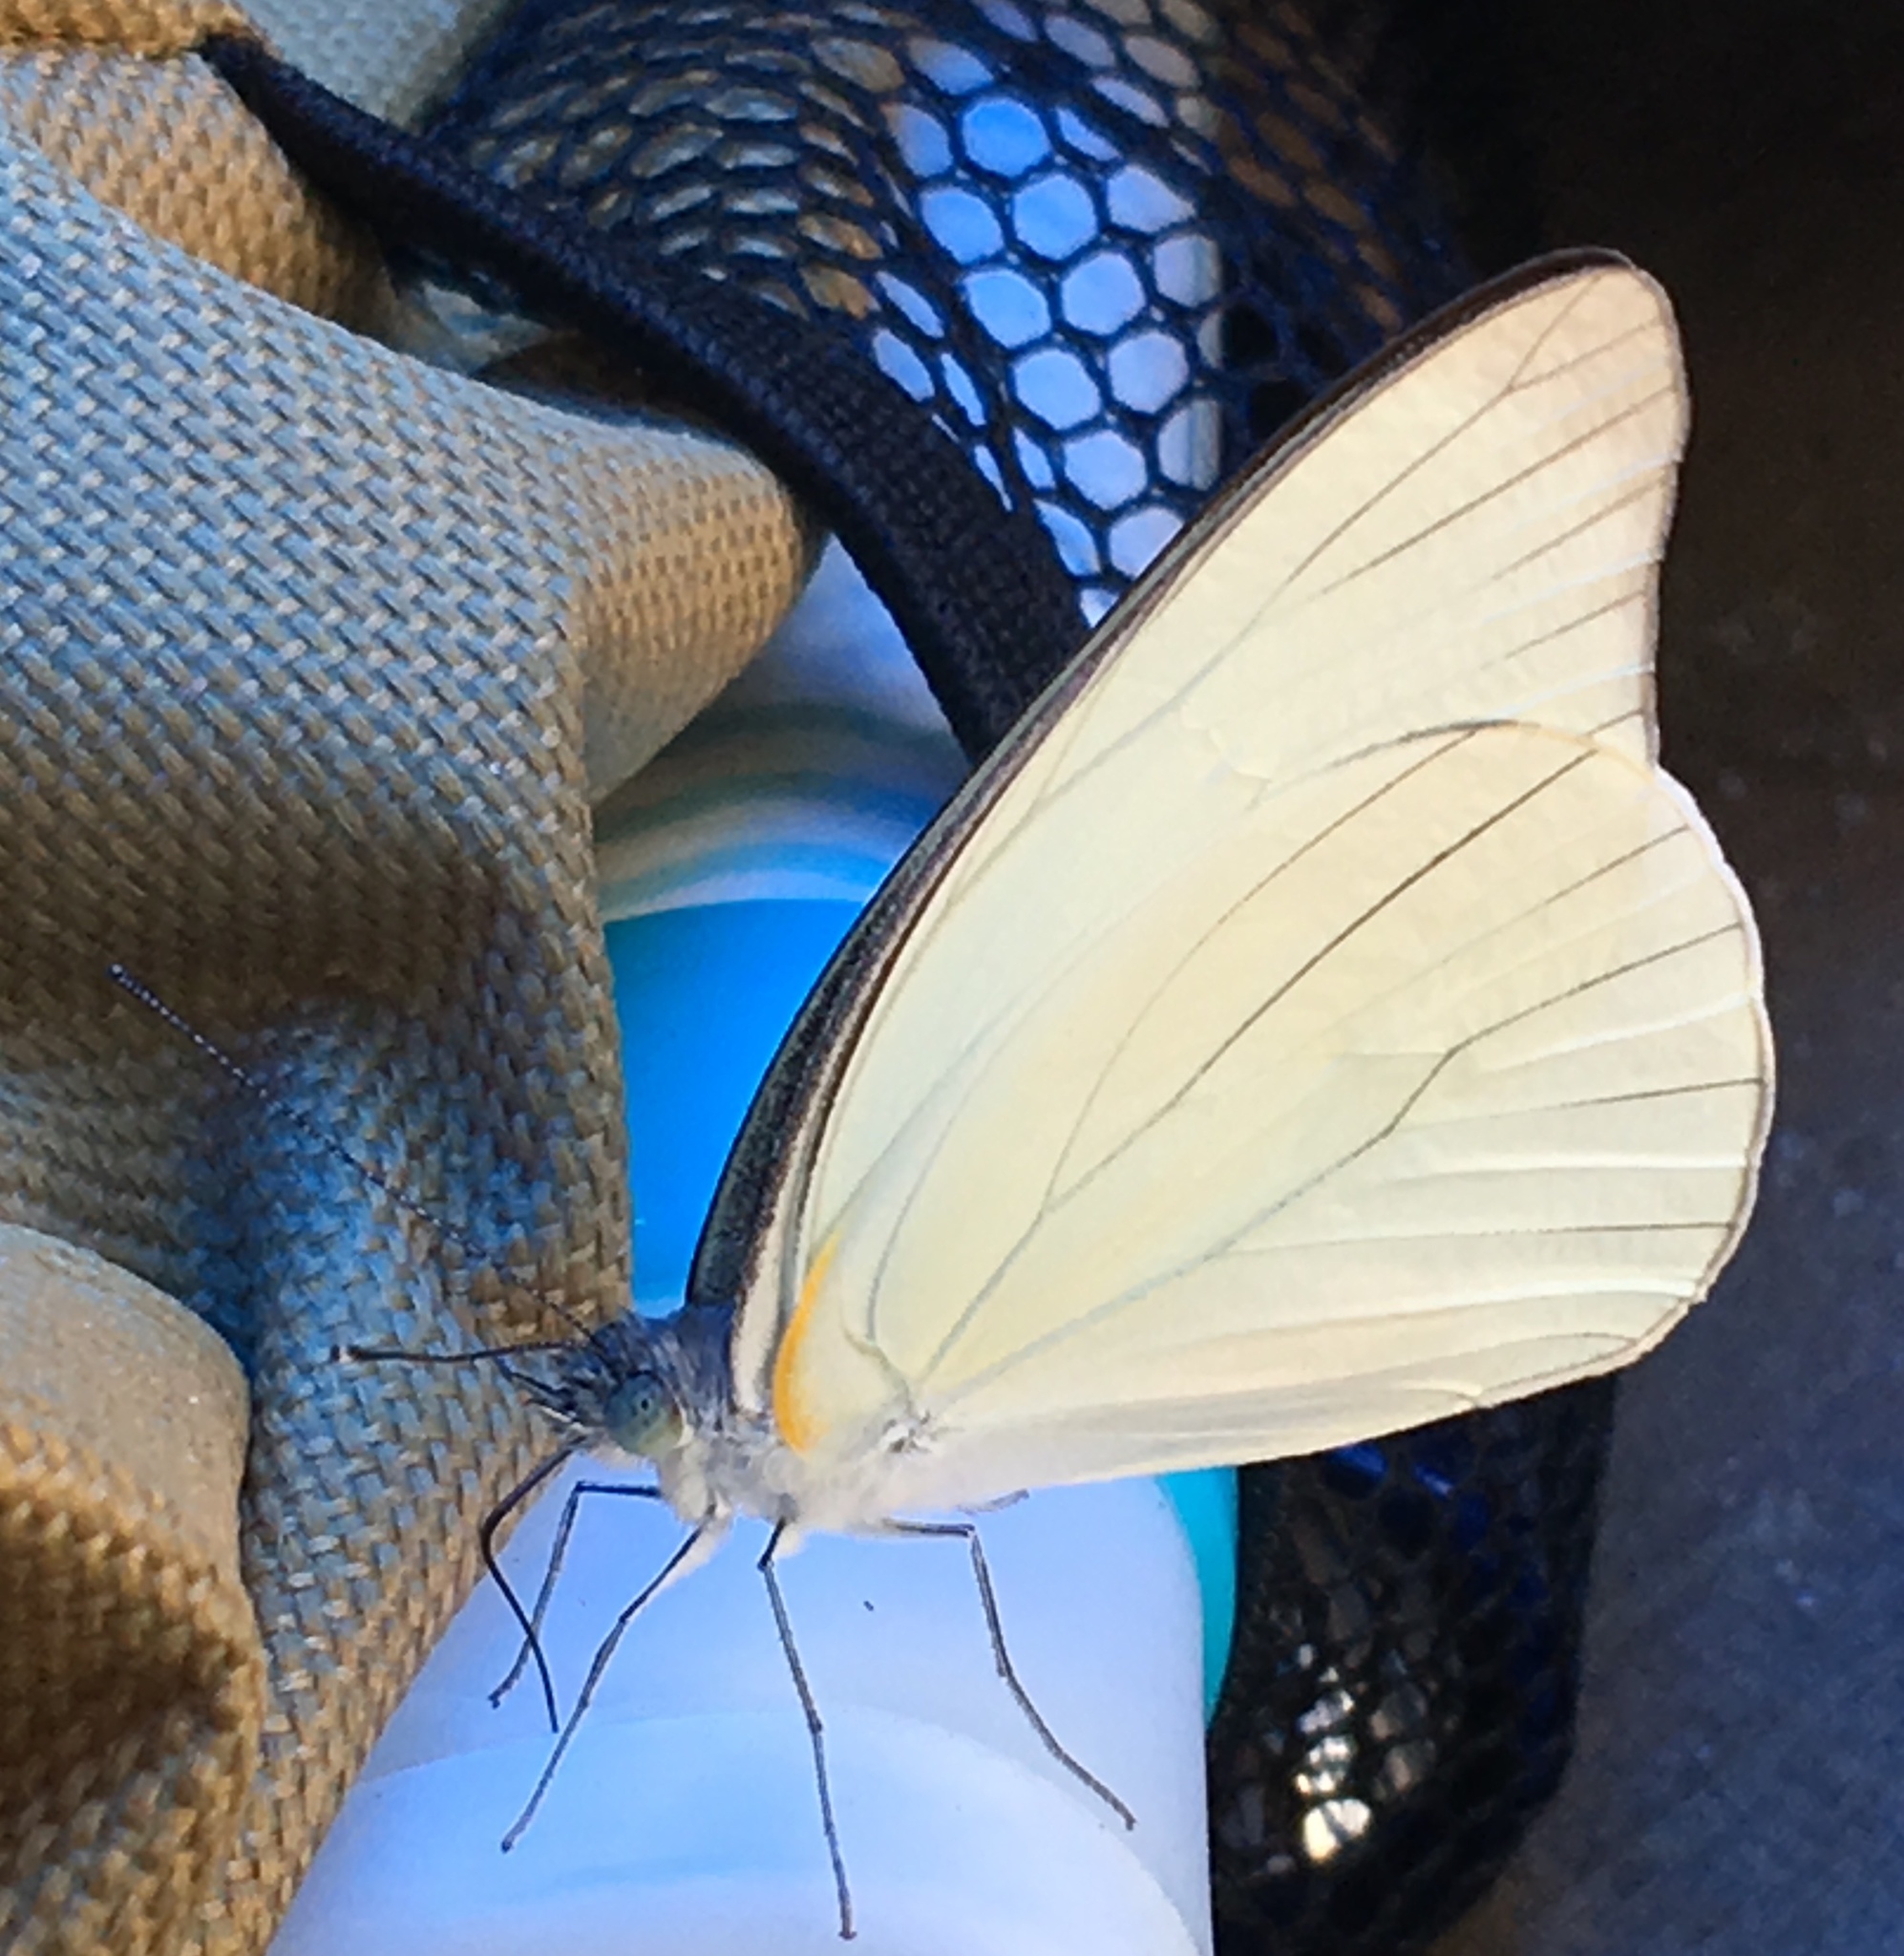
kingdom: Animalia
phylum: Arthropoda
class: Insecta
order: Lepidoptera
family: Pieridae
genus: Glutophrissa
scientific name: Glutophrissa drusilla
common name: Florida white
